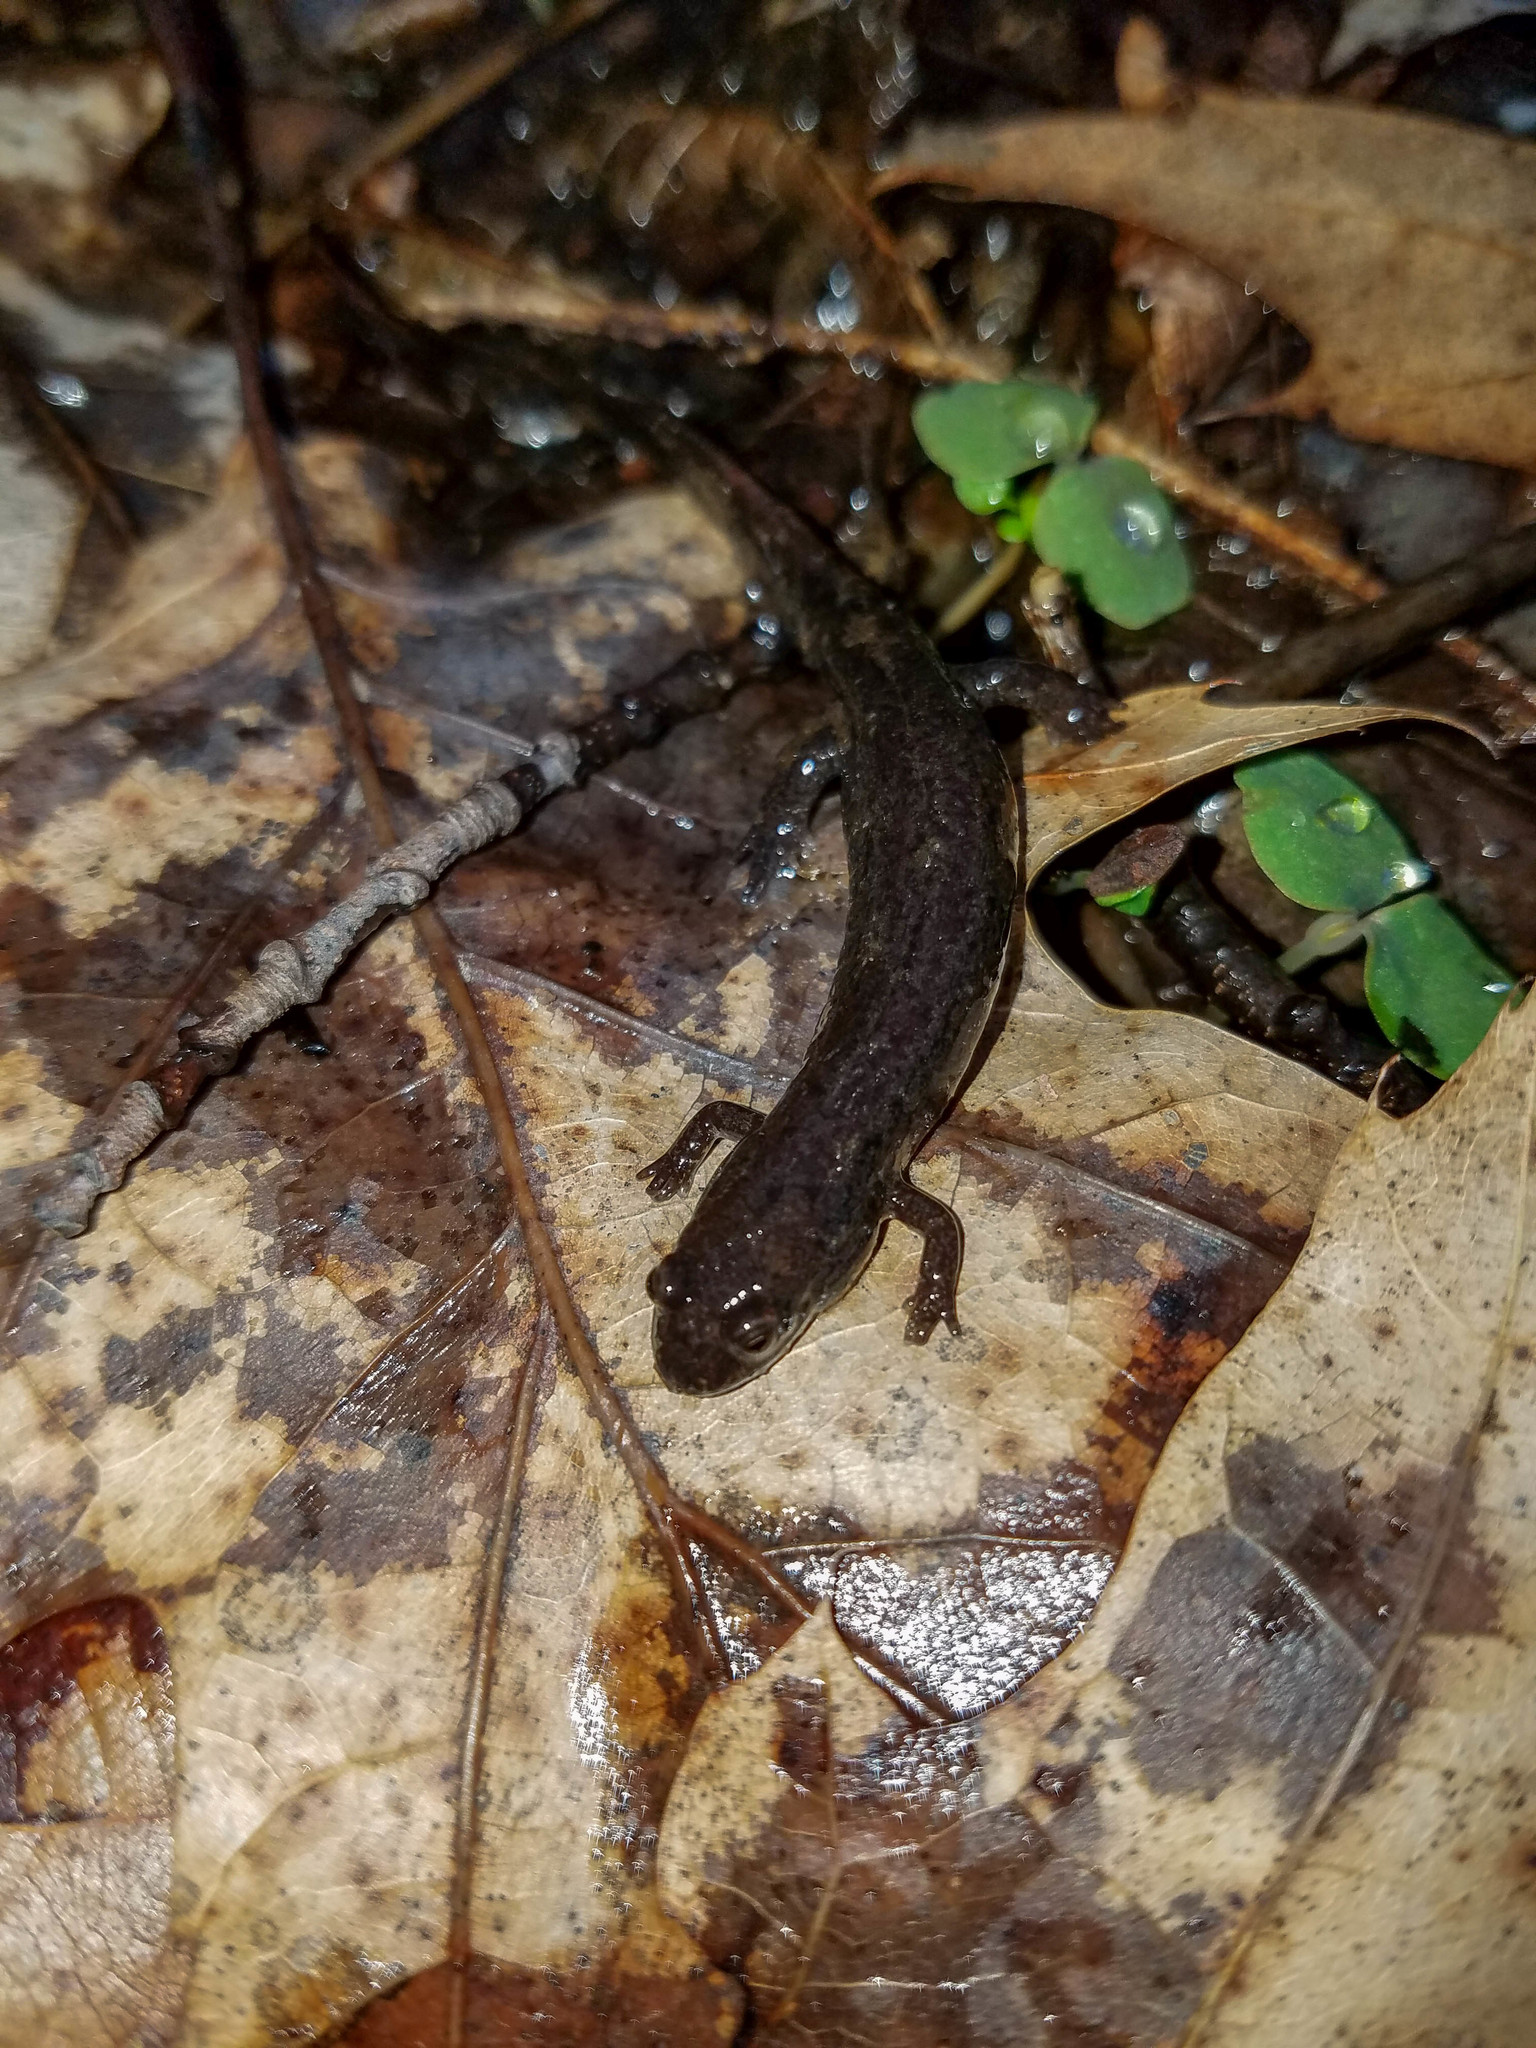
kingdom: Animalia
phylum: Chordata
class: Amphibia
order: Caudata
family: Plethodontidae
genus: Desmognathus
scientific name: Desmognathus fuscus
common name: Northern dusky salamander
